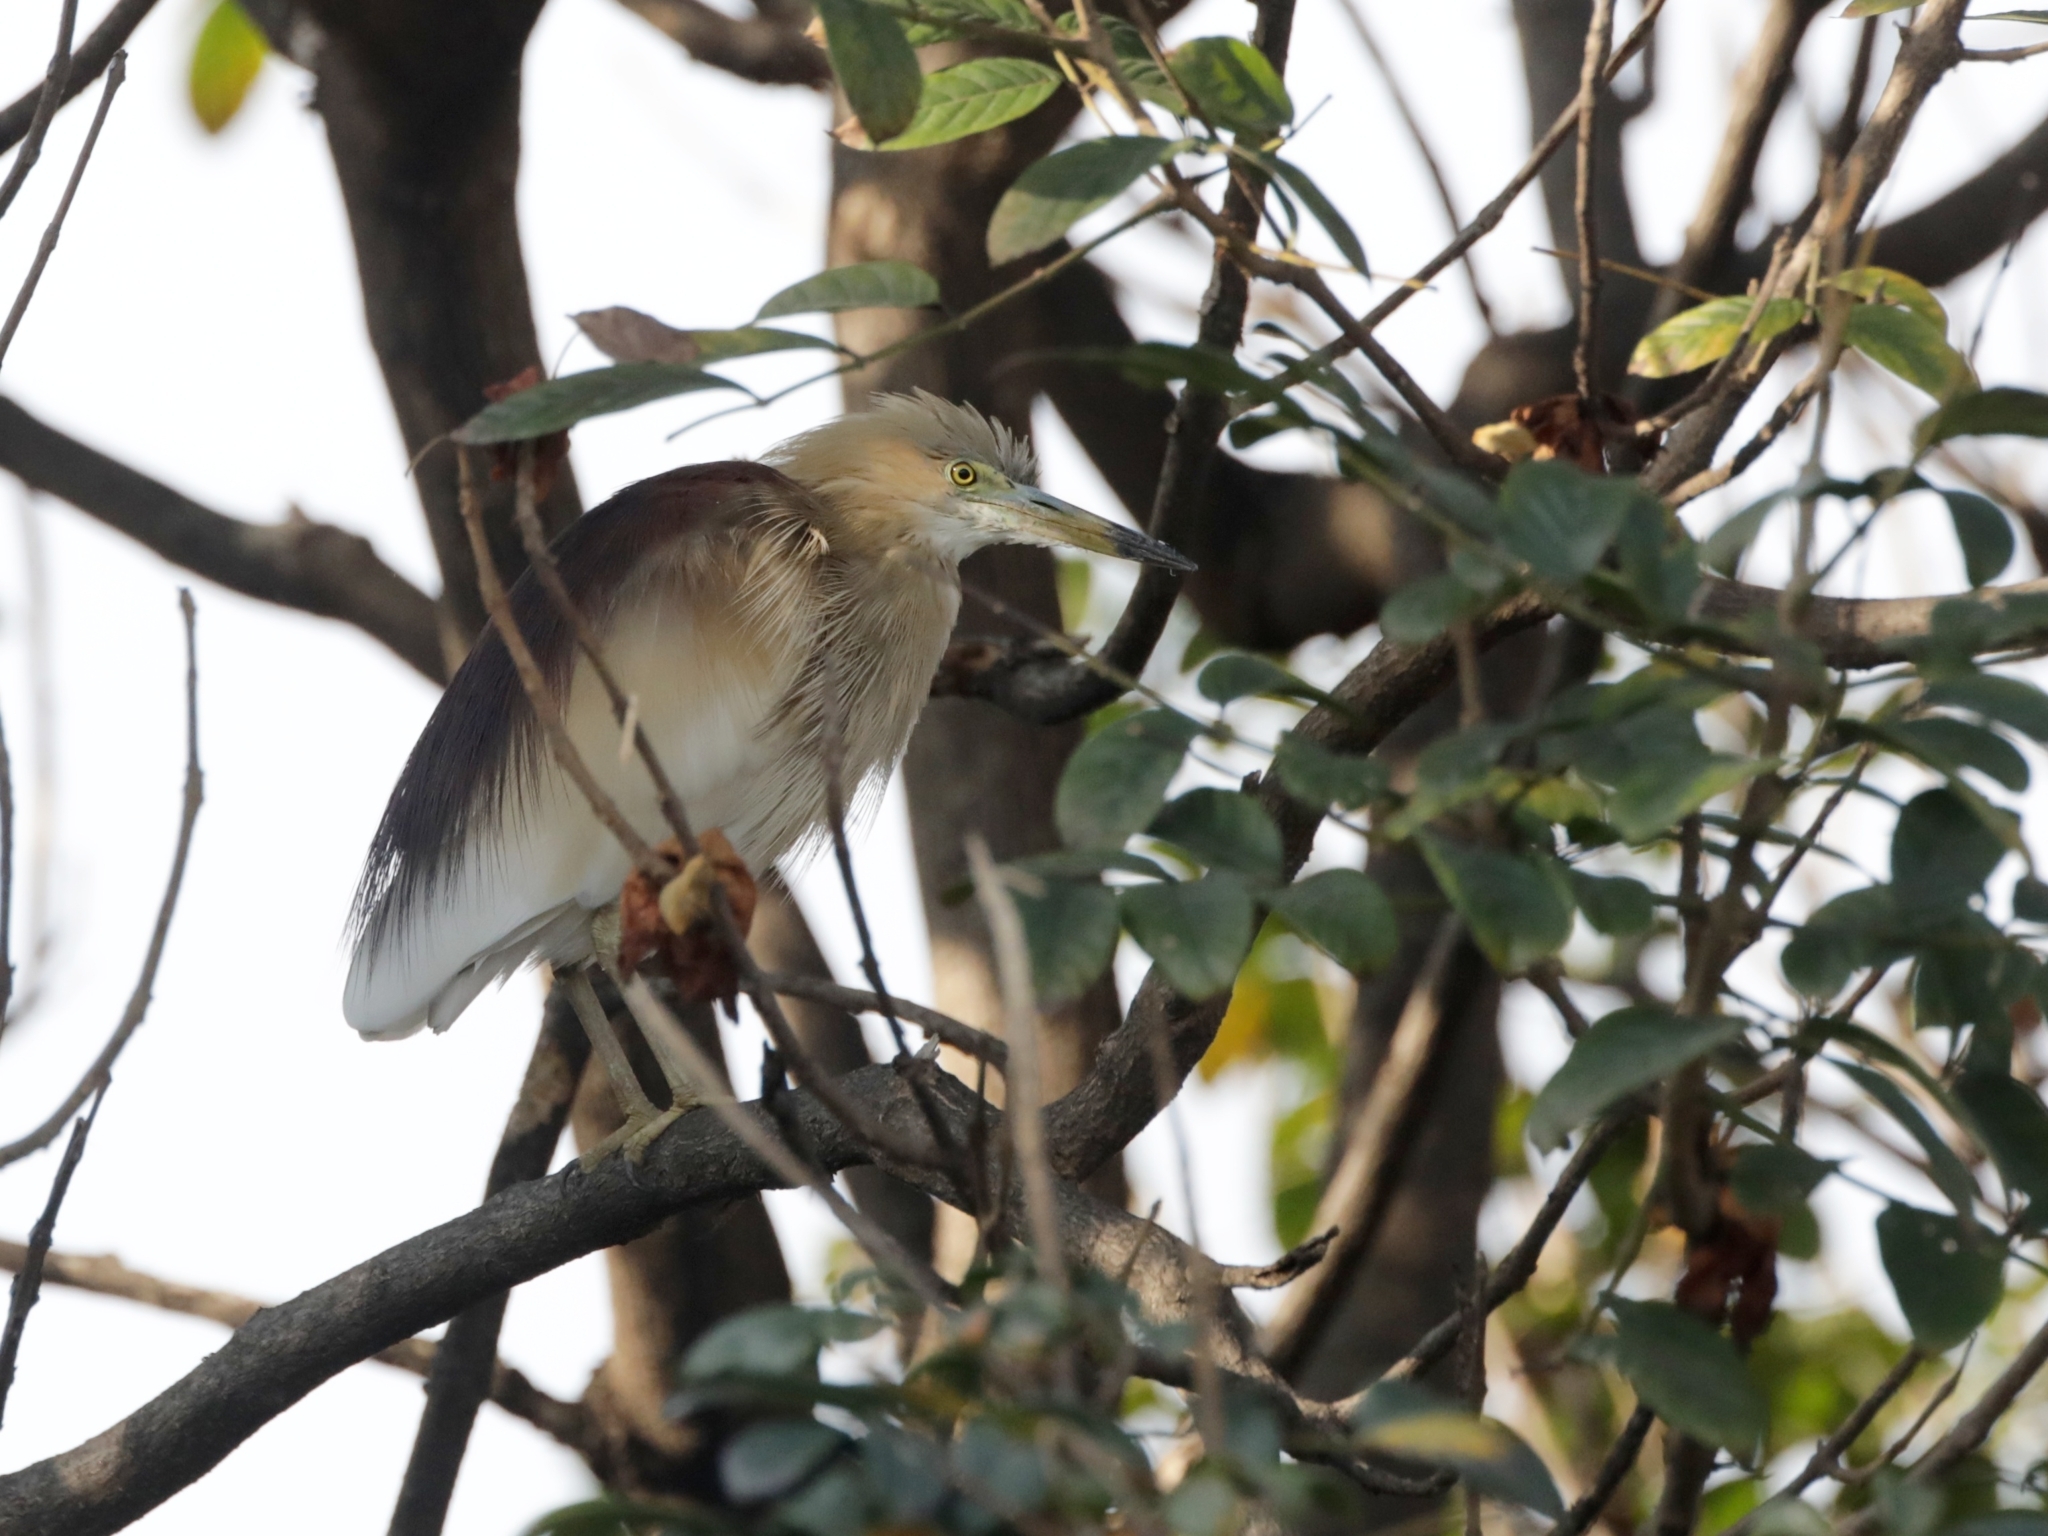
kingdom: Animalia
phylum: Chordata
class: Aves
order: Pelecaniformes
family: Ardeidae
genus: Ardeola
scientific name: Ardeola grayii
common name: Indian pond heron
